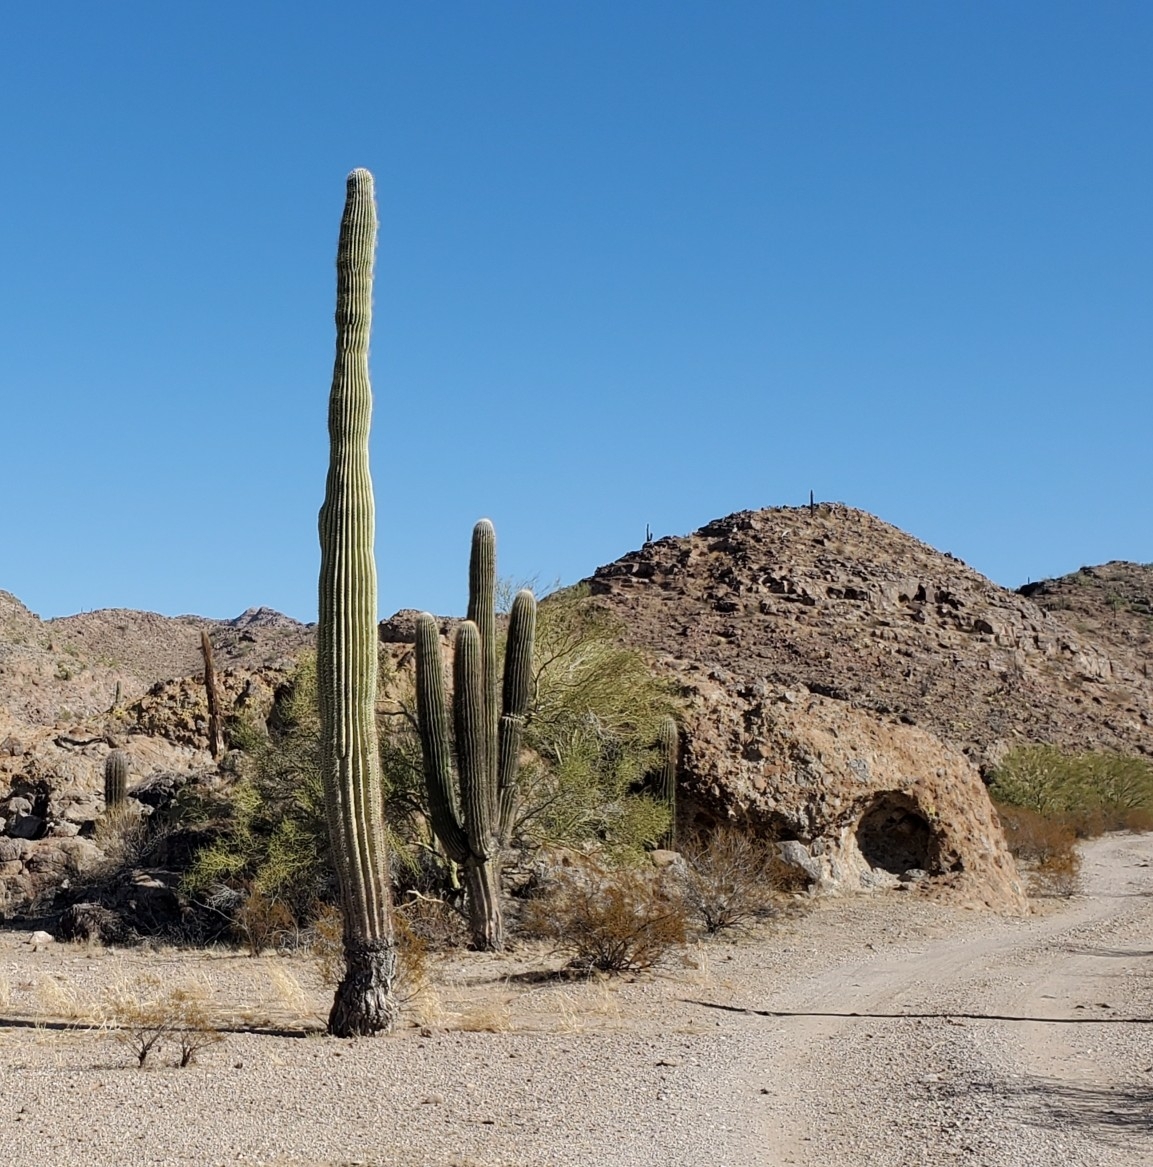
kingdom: Plantae
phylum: Tracheophyta
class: Magnoliopsida
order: Caryophyllales
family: Cactaceae
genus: Carnegiea
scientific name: Carnegiea gigantea
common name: Saguaro
